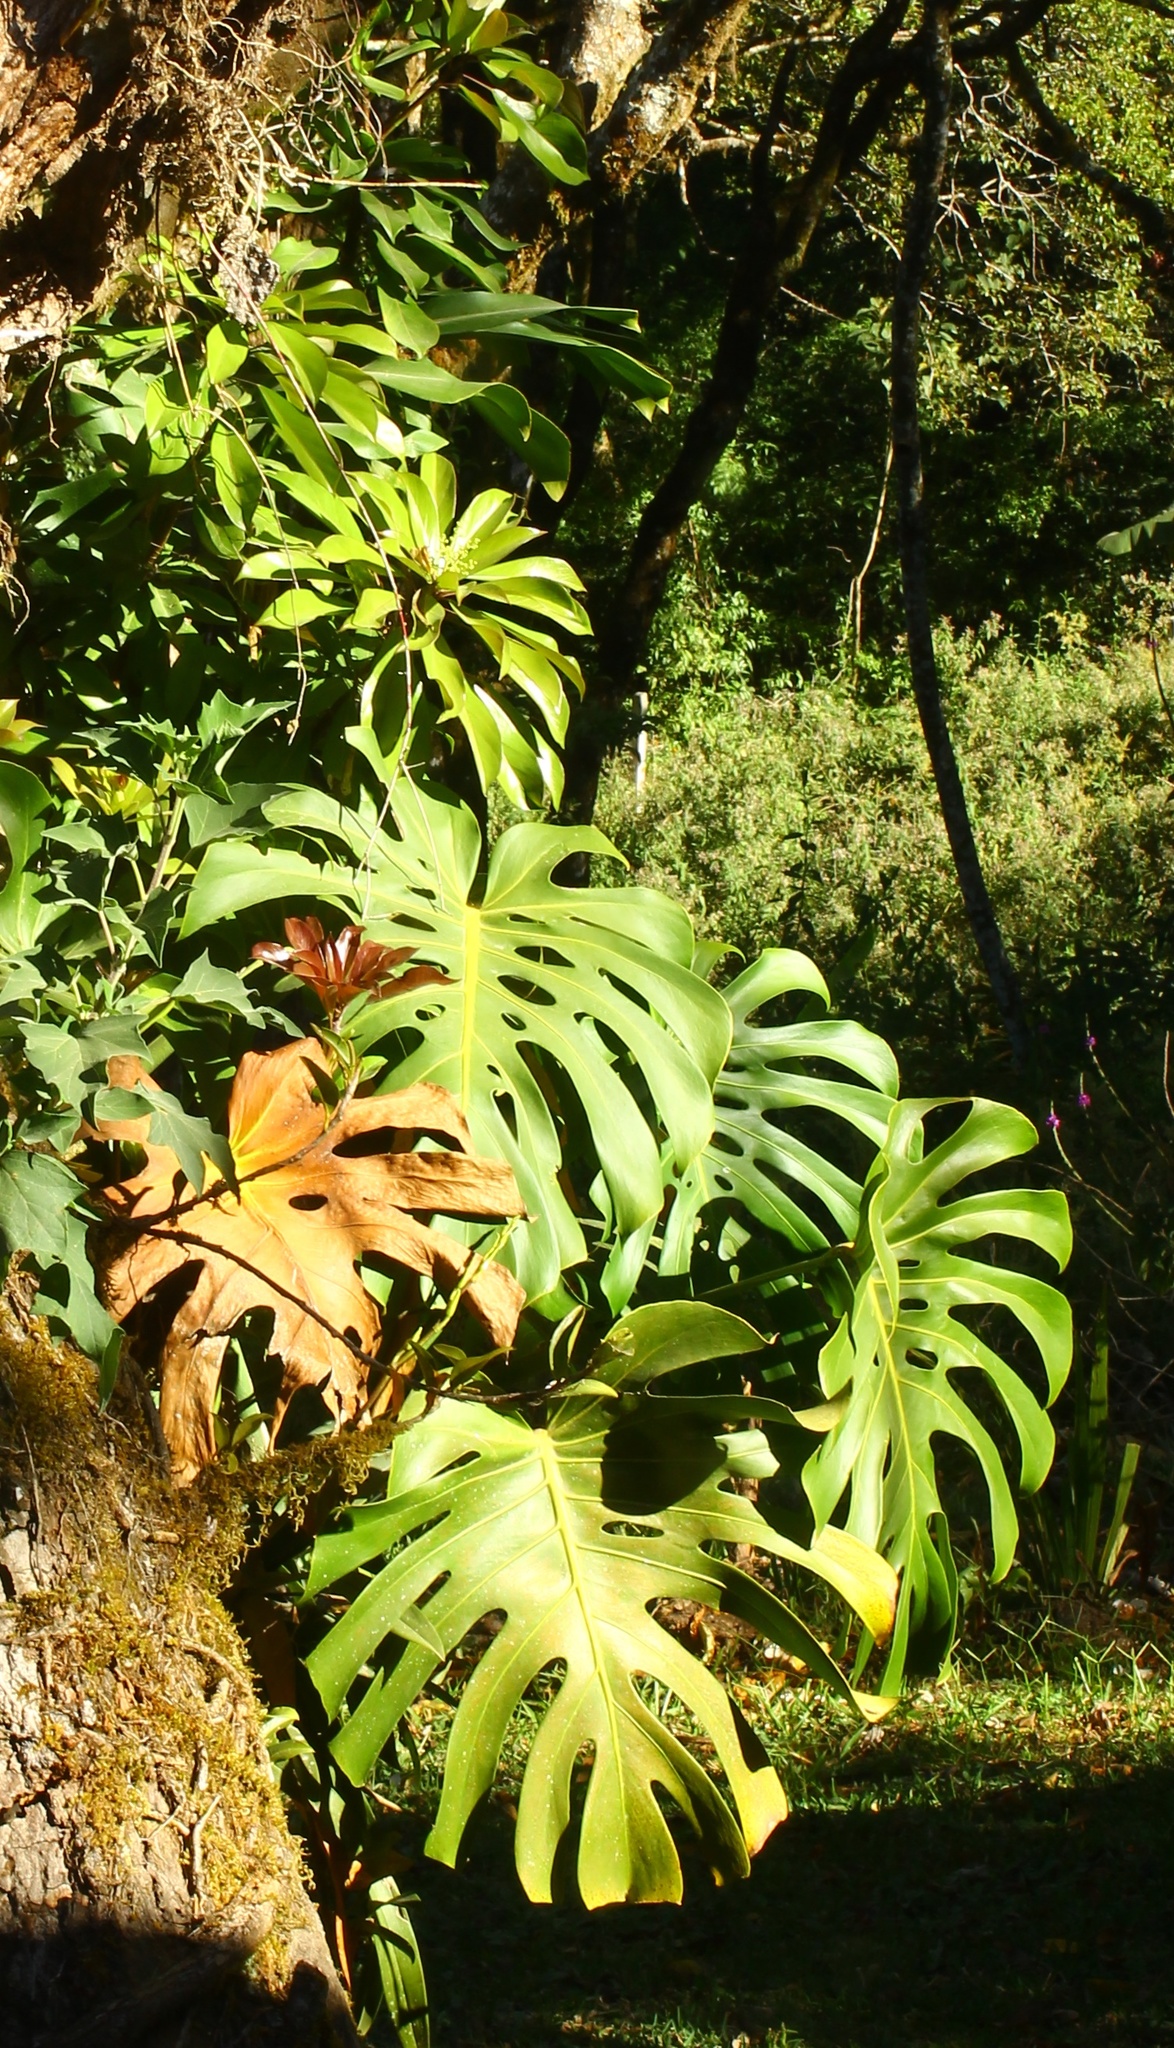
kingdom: Plantae
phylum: Tracheophyta
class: Liliopsida
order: Alismatales
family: Araceae
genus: Monstera
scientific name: Monstera deliciosa
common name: Cut-leaf-philodendron
